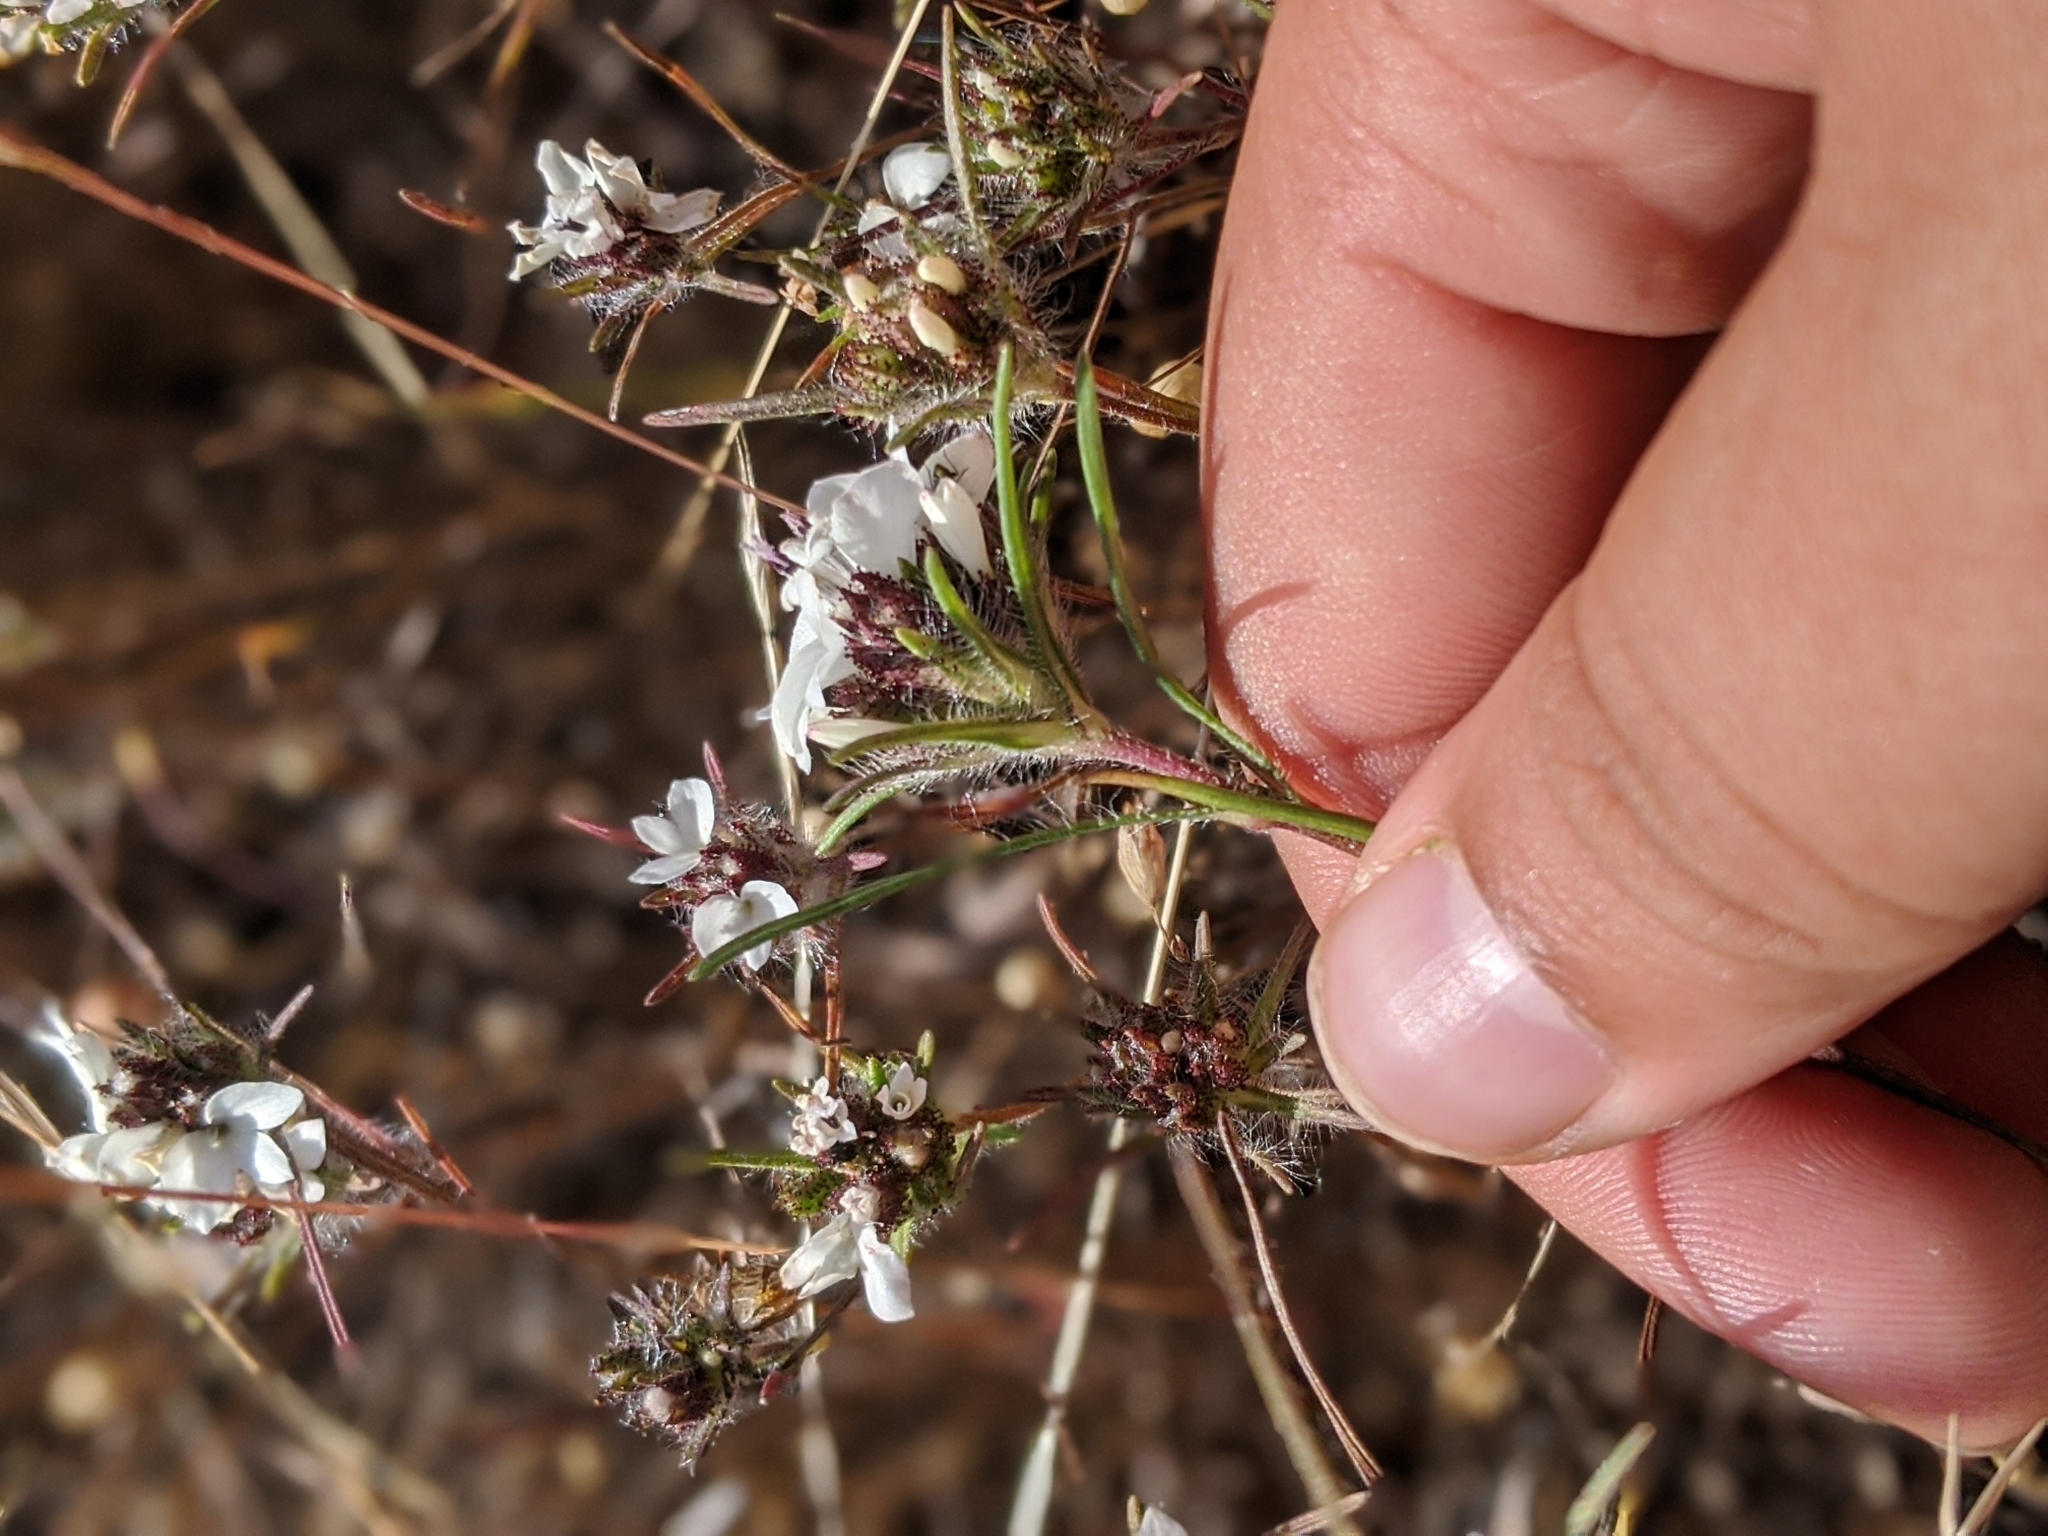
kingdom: Plantae
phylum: Tracheophyta
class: Magnoliopsida
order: Asterales
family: Asteraceae
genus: Calycadenia
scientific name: Calycadenia multiglandulosa
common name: Sticky calycadenia
